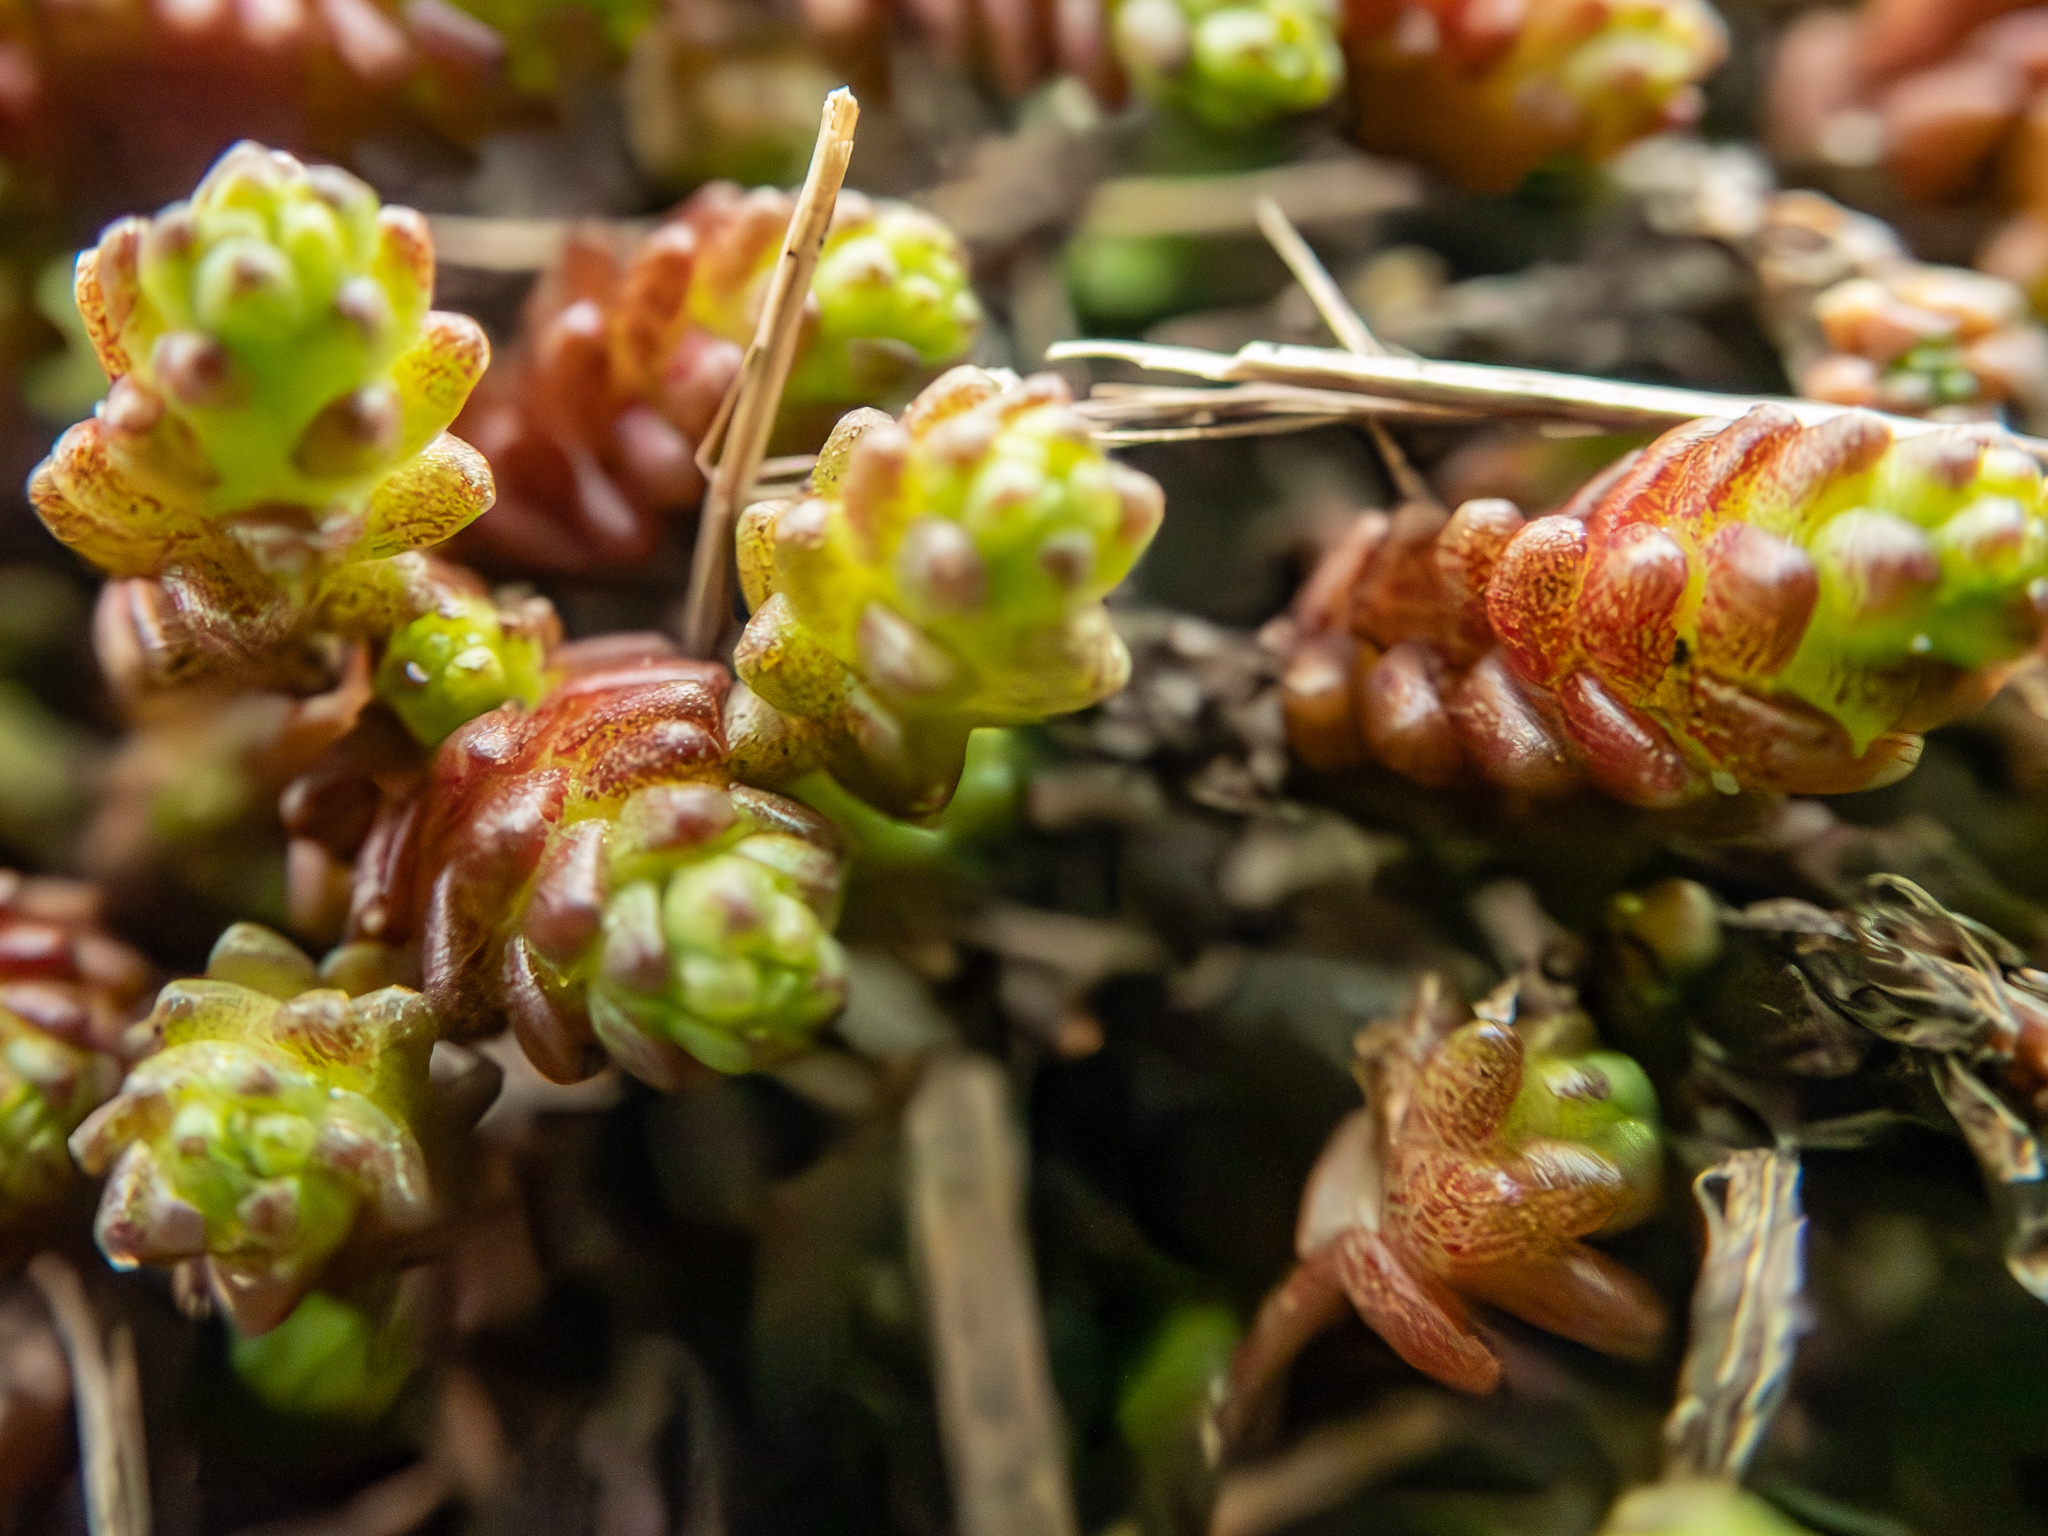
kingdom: Plantae
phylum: Tracheophyta
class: Magnoliopsida
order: Saxifragales
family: Crassulaceae
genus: Sedum
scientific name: Sedum acre
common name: Biting stonecrop
